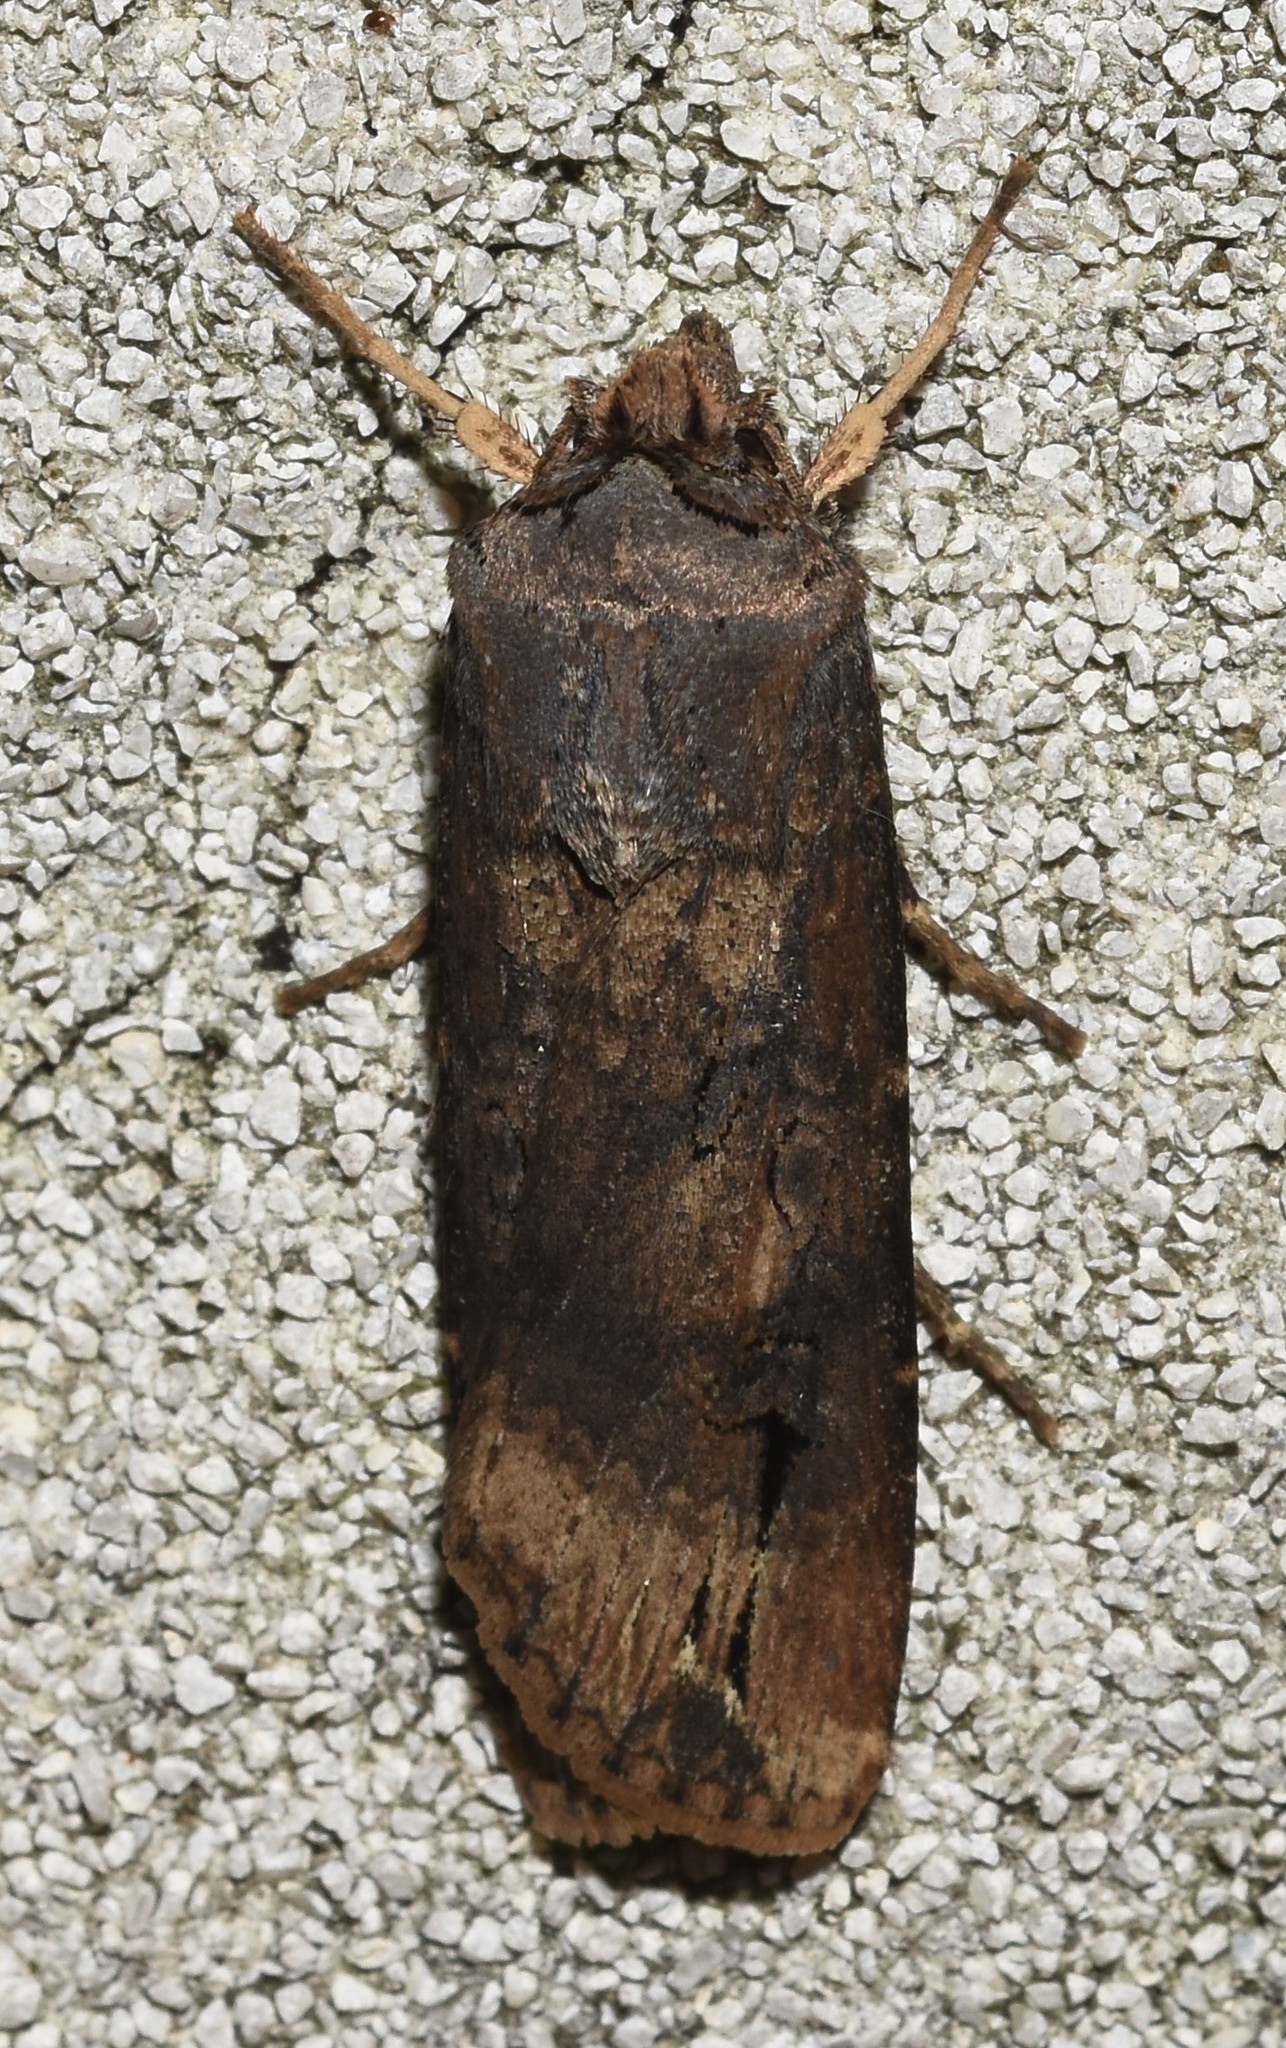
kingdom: Animalia
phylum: Arthropoda
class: Insecta
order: Lepidoptera
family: Noctuidae
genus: Agrotis
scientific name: Agrotis ipsilon
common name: Dark sword-grass
